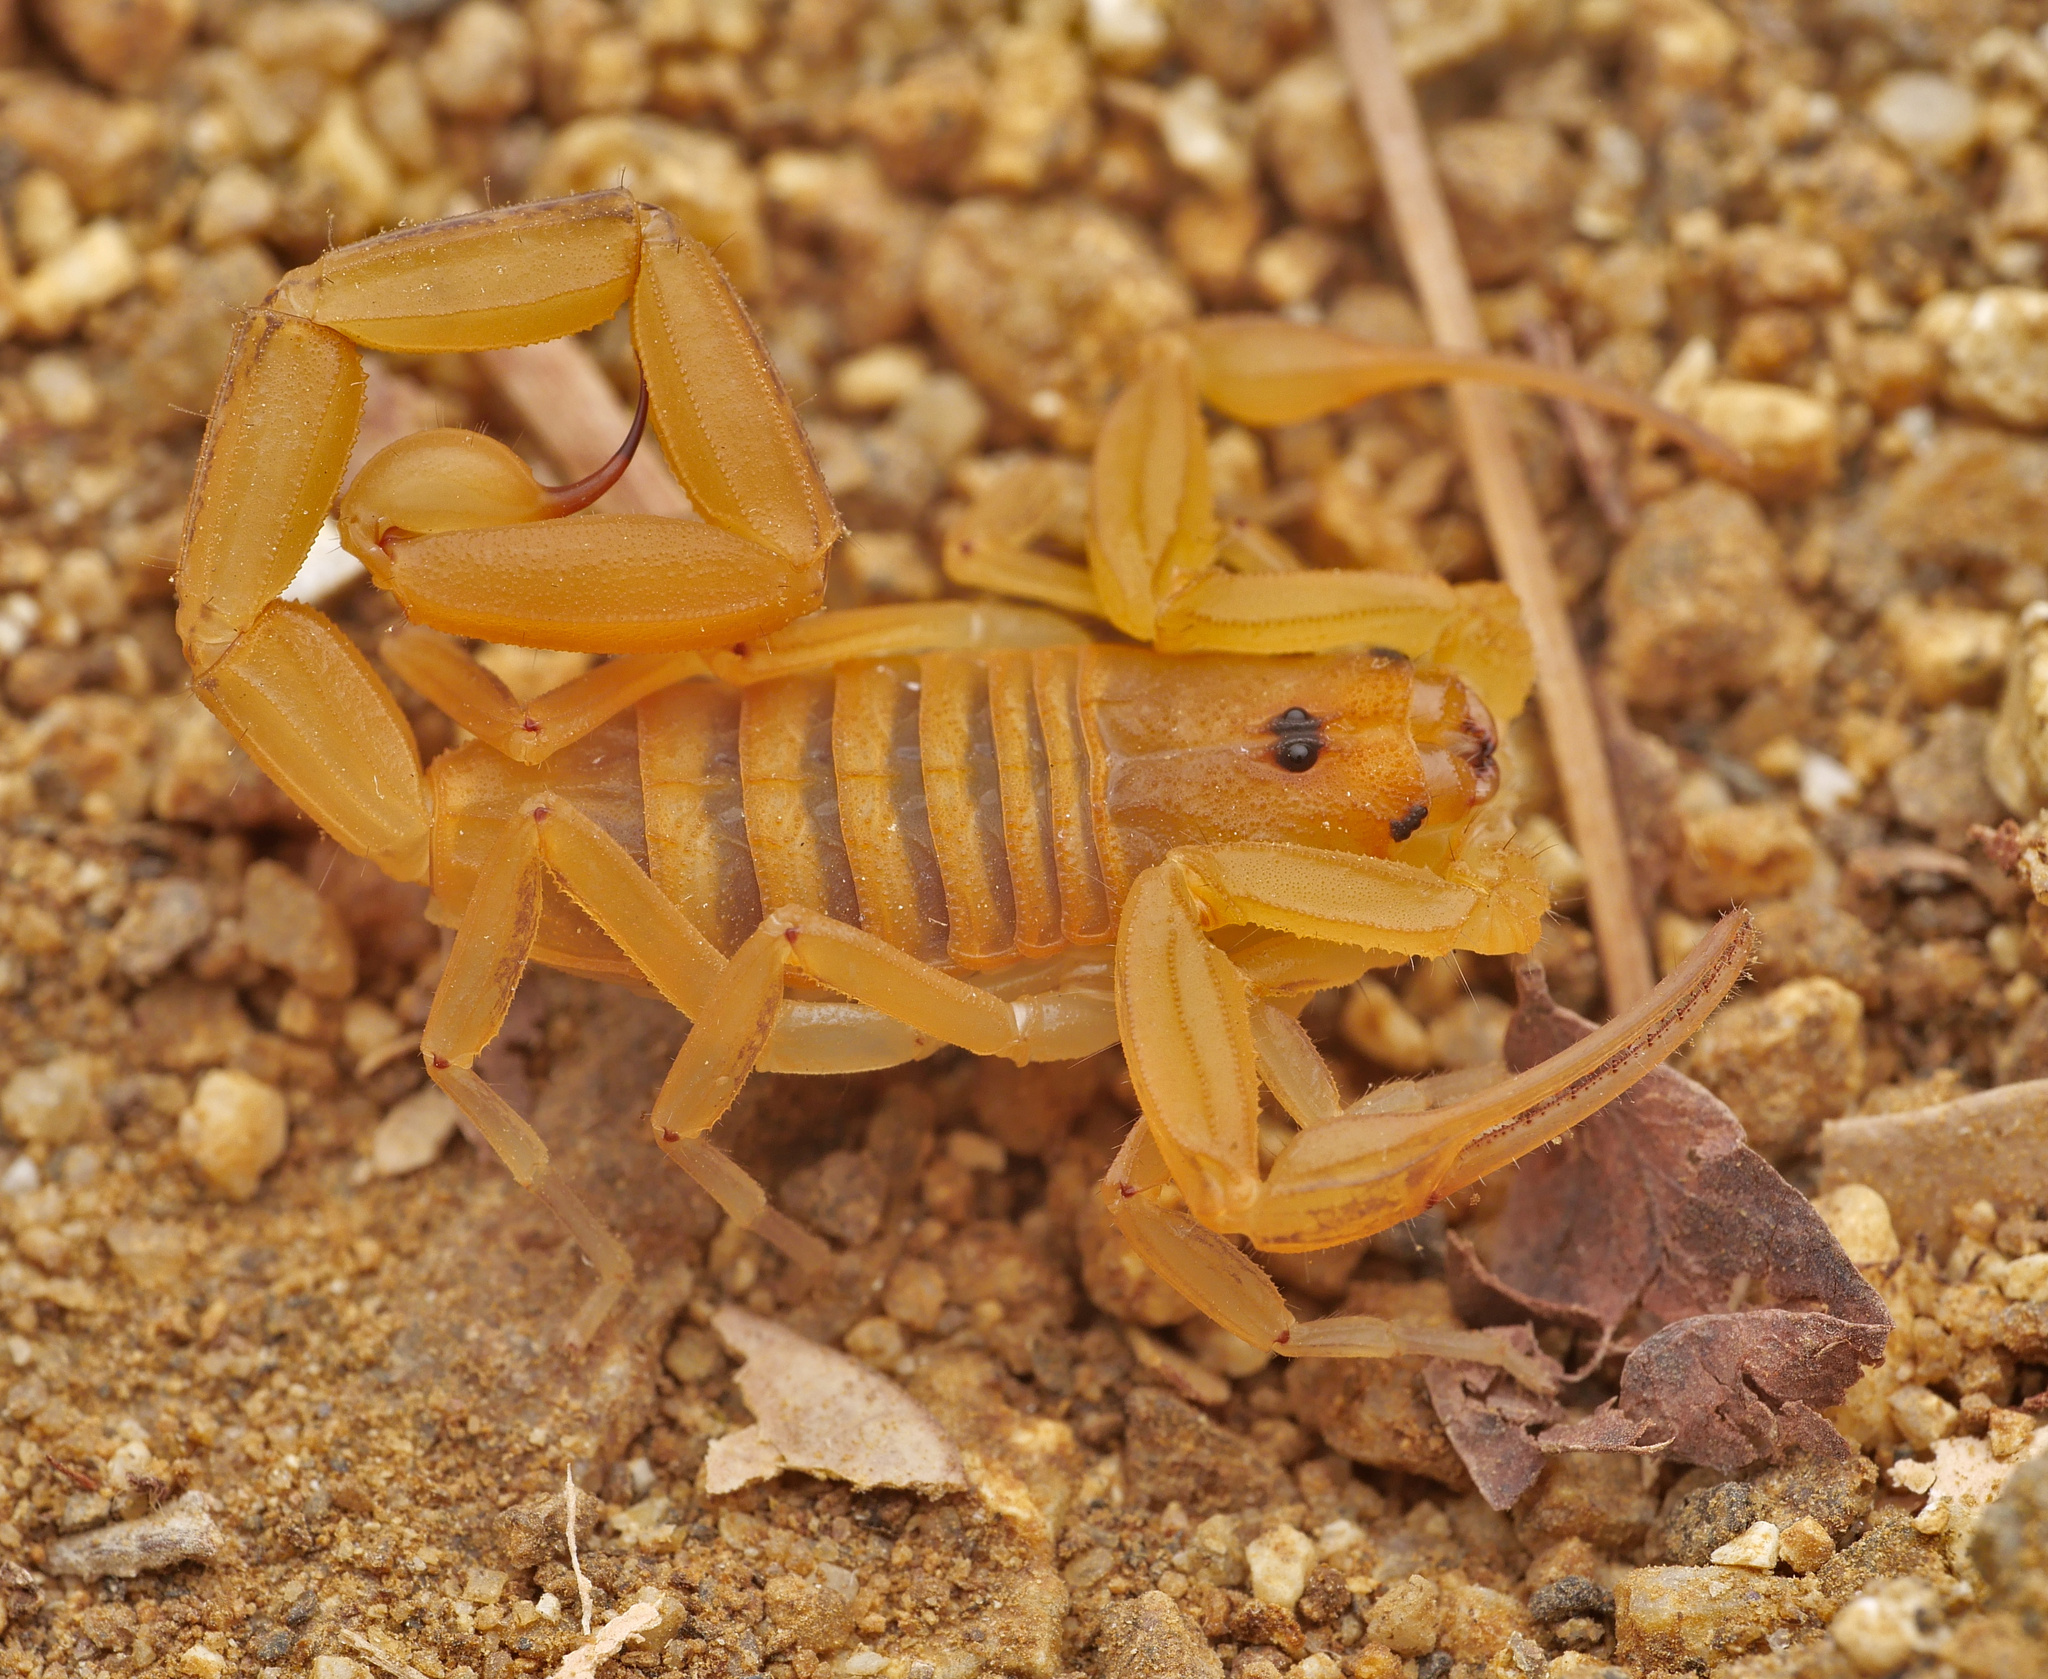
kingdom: Animalia
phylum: Arthropoda
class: Arachnida
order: Scorpiones
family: Buthidae
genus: Centruroides
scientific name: Centruroides exilicauda
